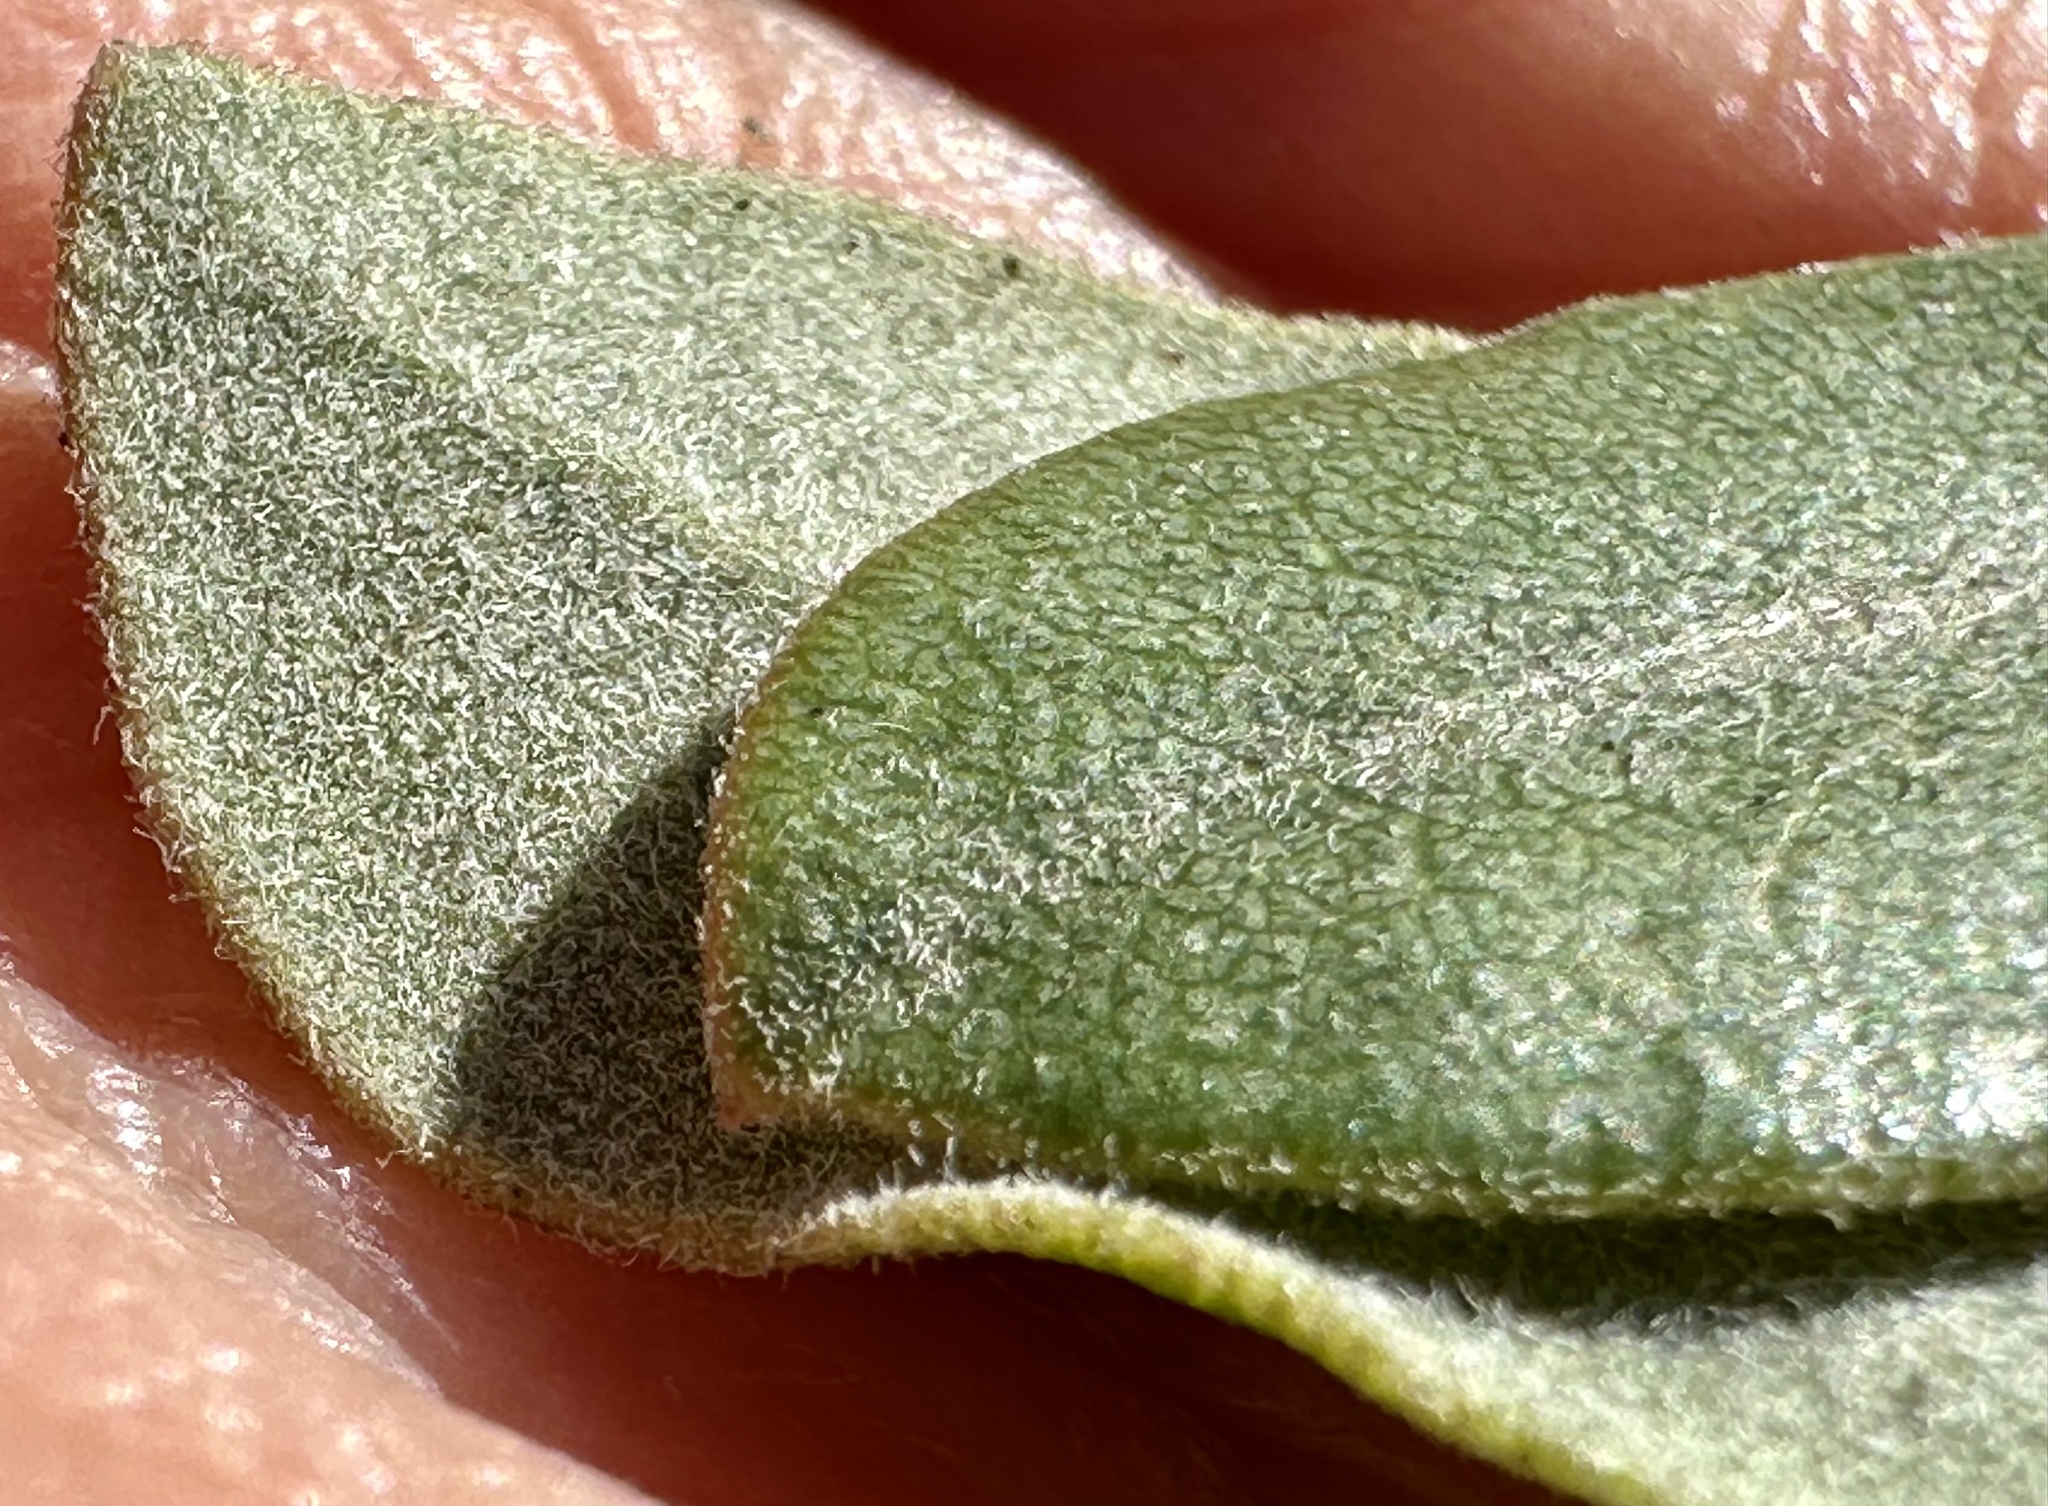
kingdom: Plantae
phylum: Tracheophyta
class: Magnoliopsida
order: Ericales
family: Ericaceae
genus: Arctostaphylos
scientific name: Arctostaphylos crustacea
